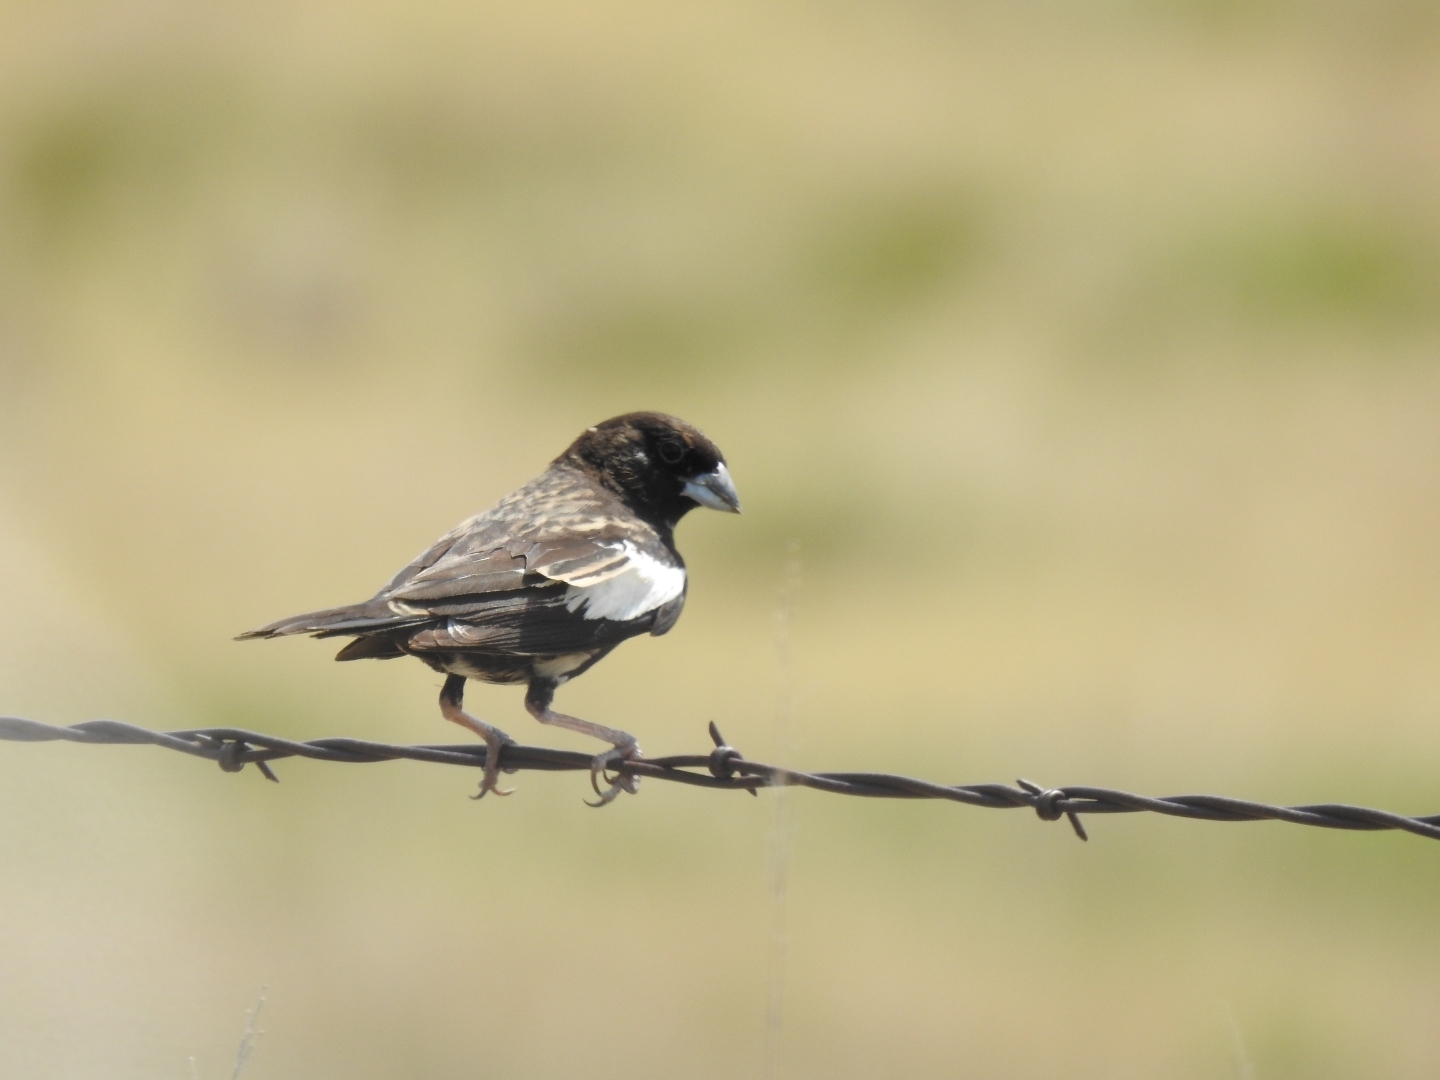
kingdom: Animalia
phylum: Chordata
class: Aves
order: Passeriformes
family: Passerellidae
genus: Calamospiza
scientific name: Calamospiza melanocorys
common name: Lark bunting
